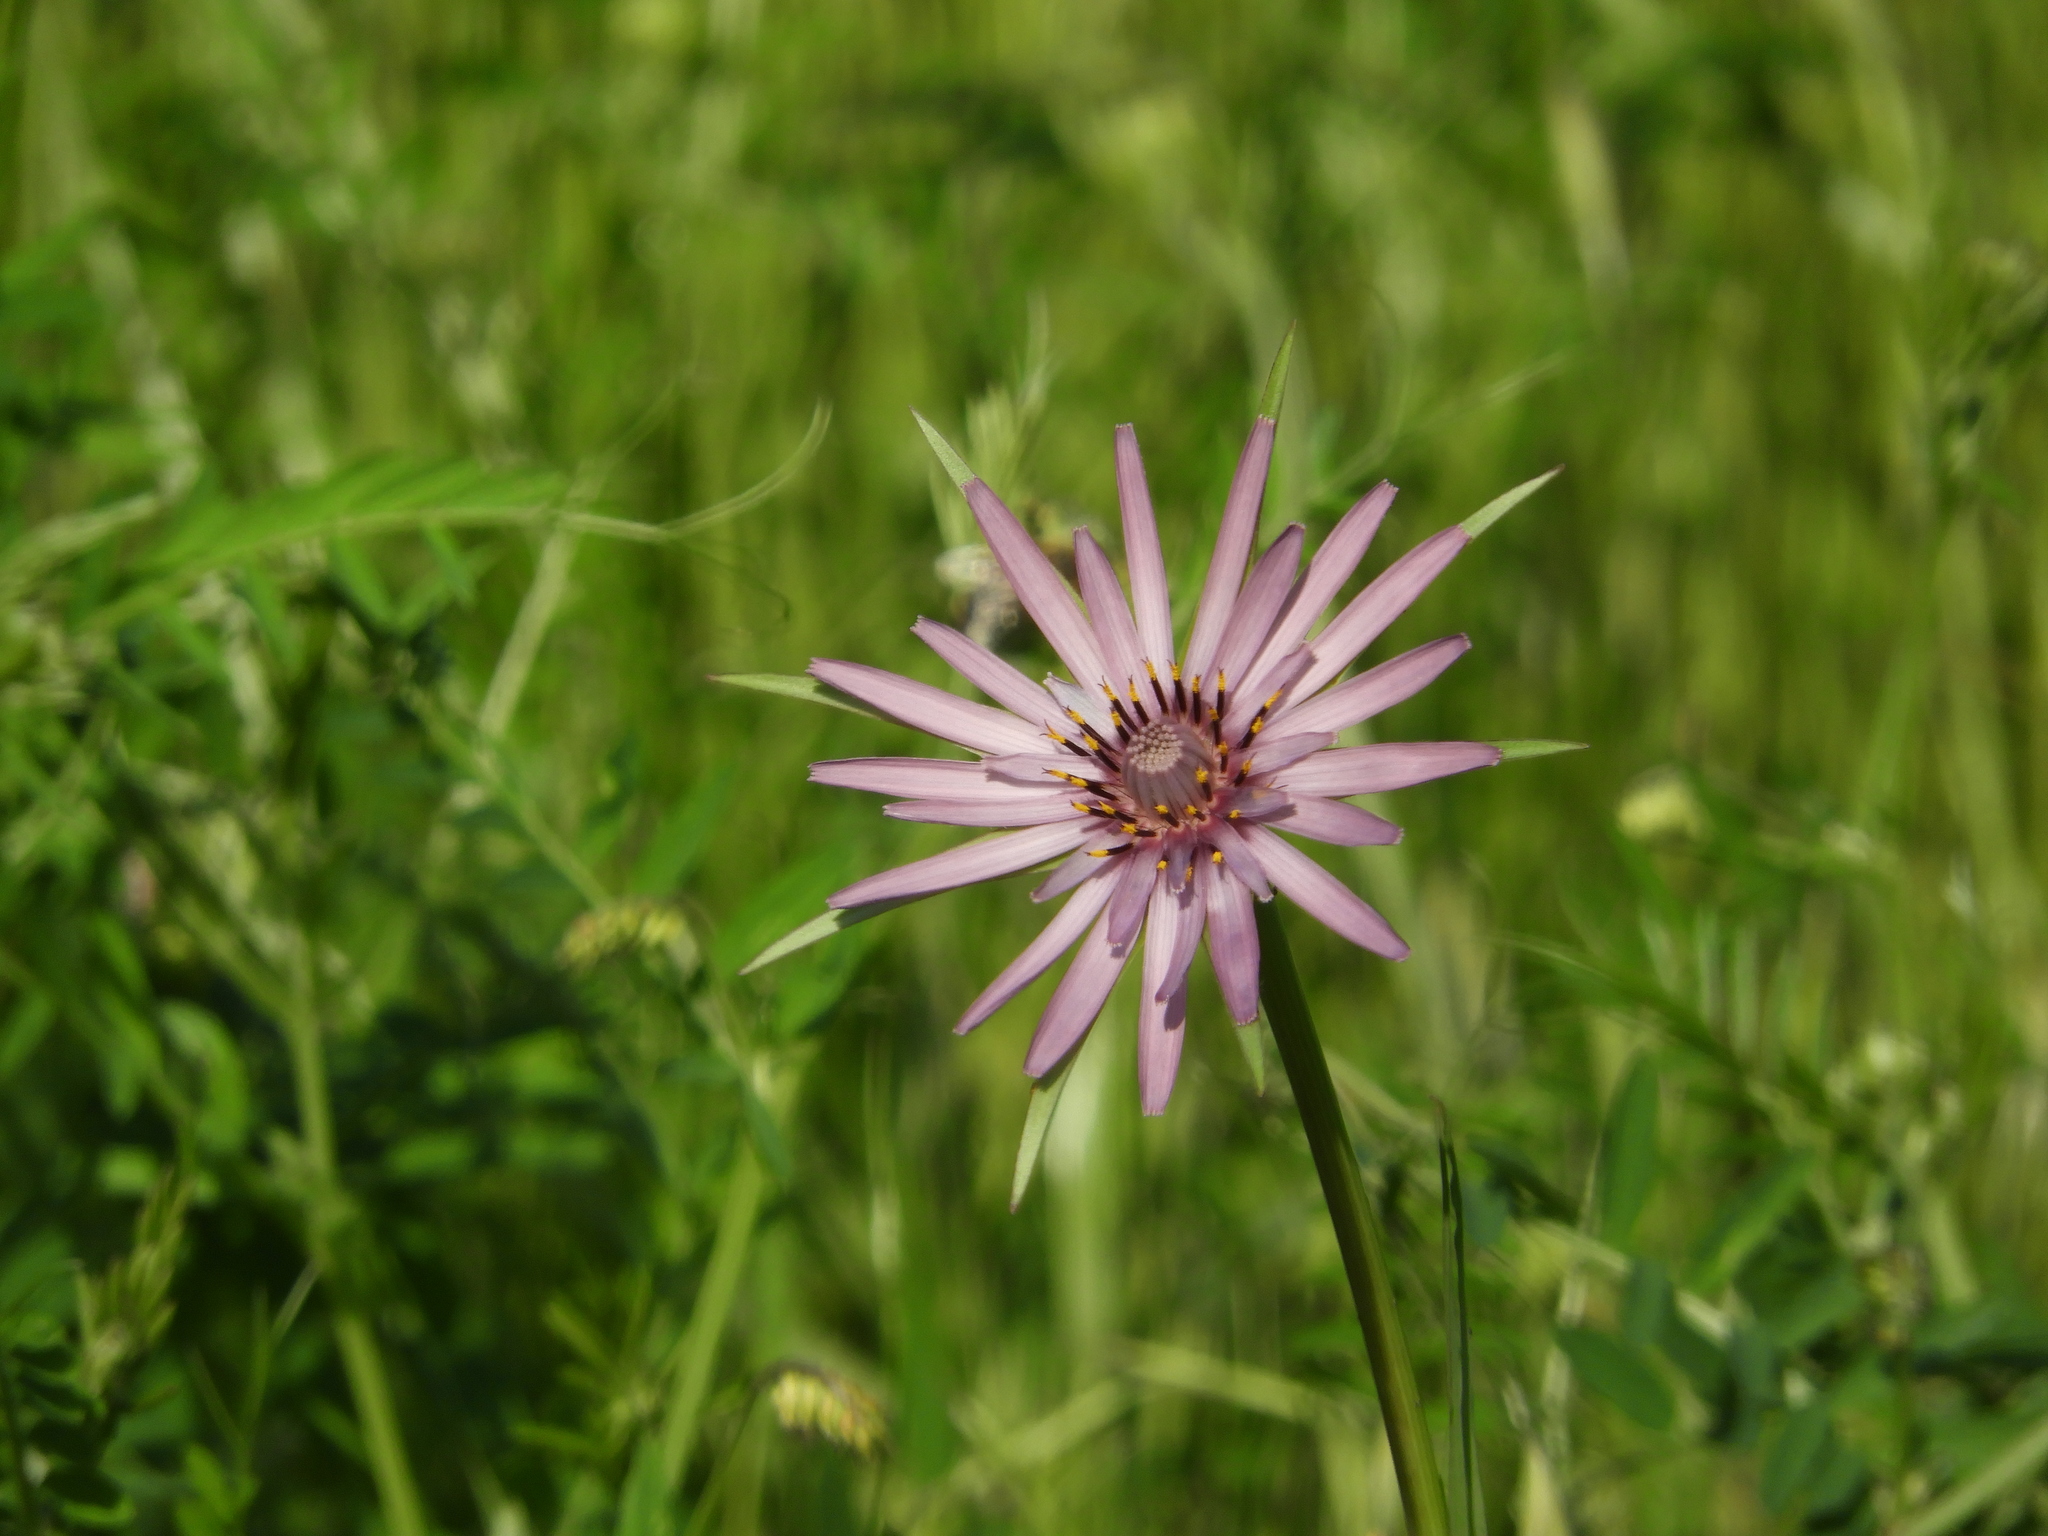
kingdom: Plantae
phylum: Tracheophyta
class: Magnoliopsida
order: Asterales
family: Asteraceae
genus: Tragopogon
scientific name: Tragopogon porrifolius
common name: Salsify
